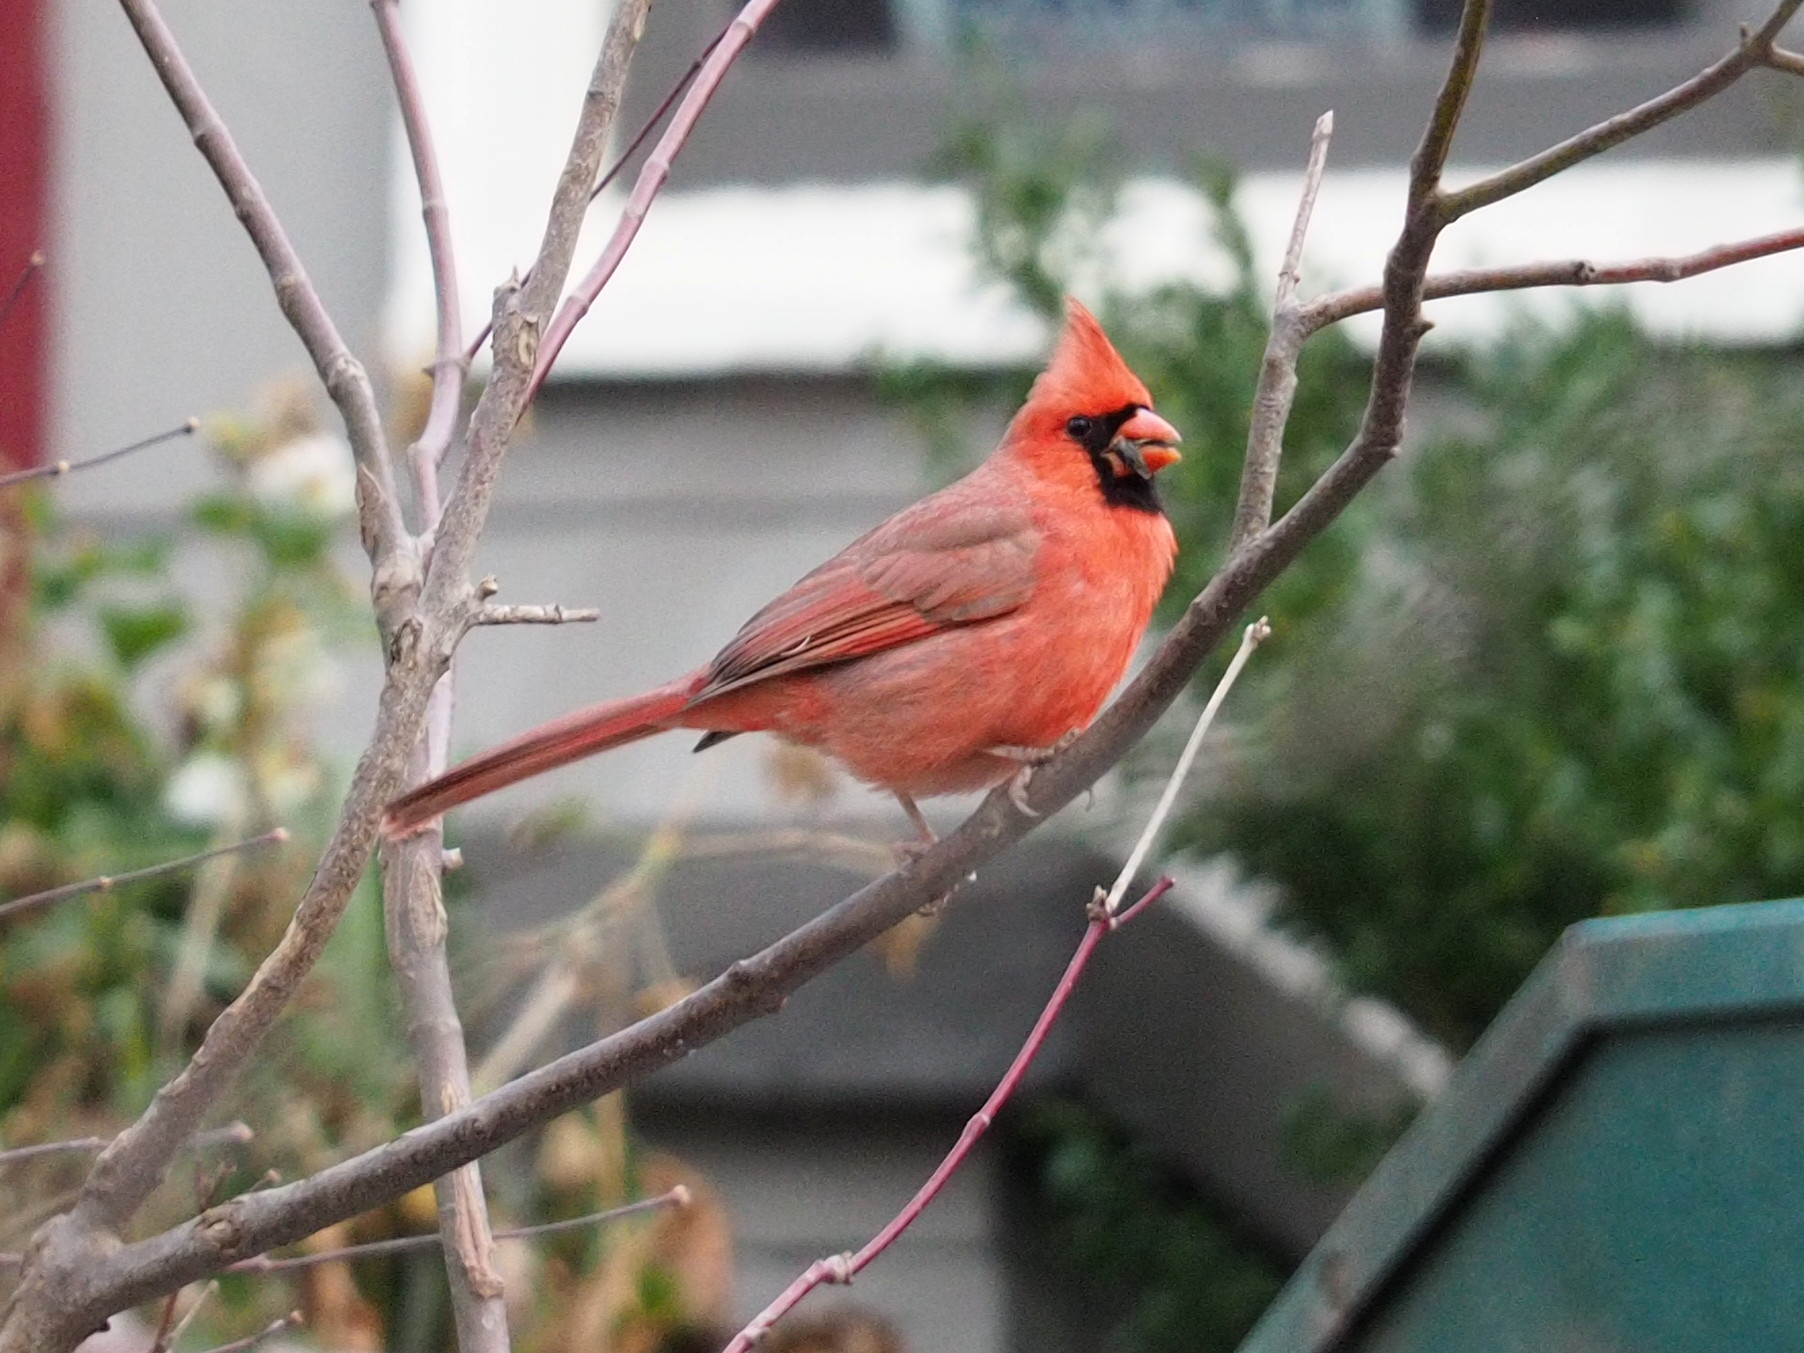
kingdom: Animalia
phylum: Chordata
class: Aves
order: Passeriformes
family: Cardinalidae
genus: Cardinalis
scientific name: Cardinalis cardinalis
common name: Northern cardinal
